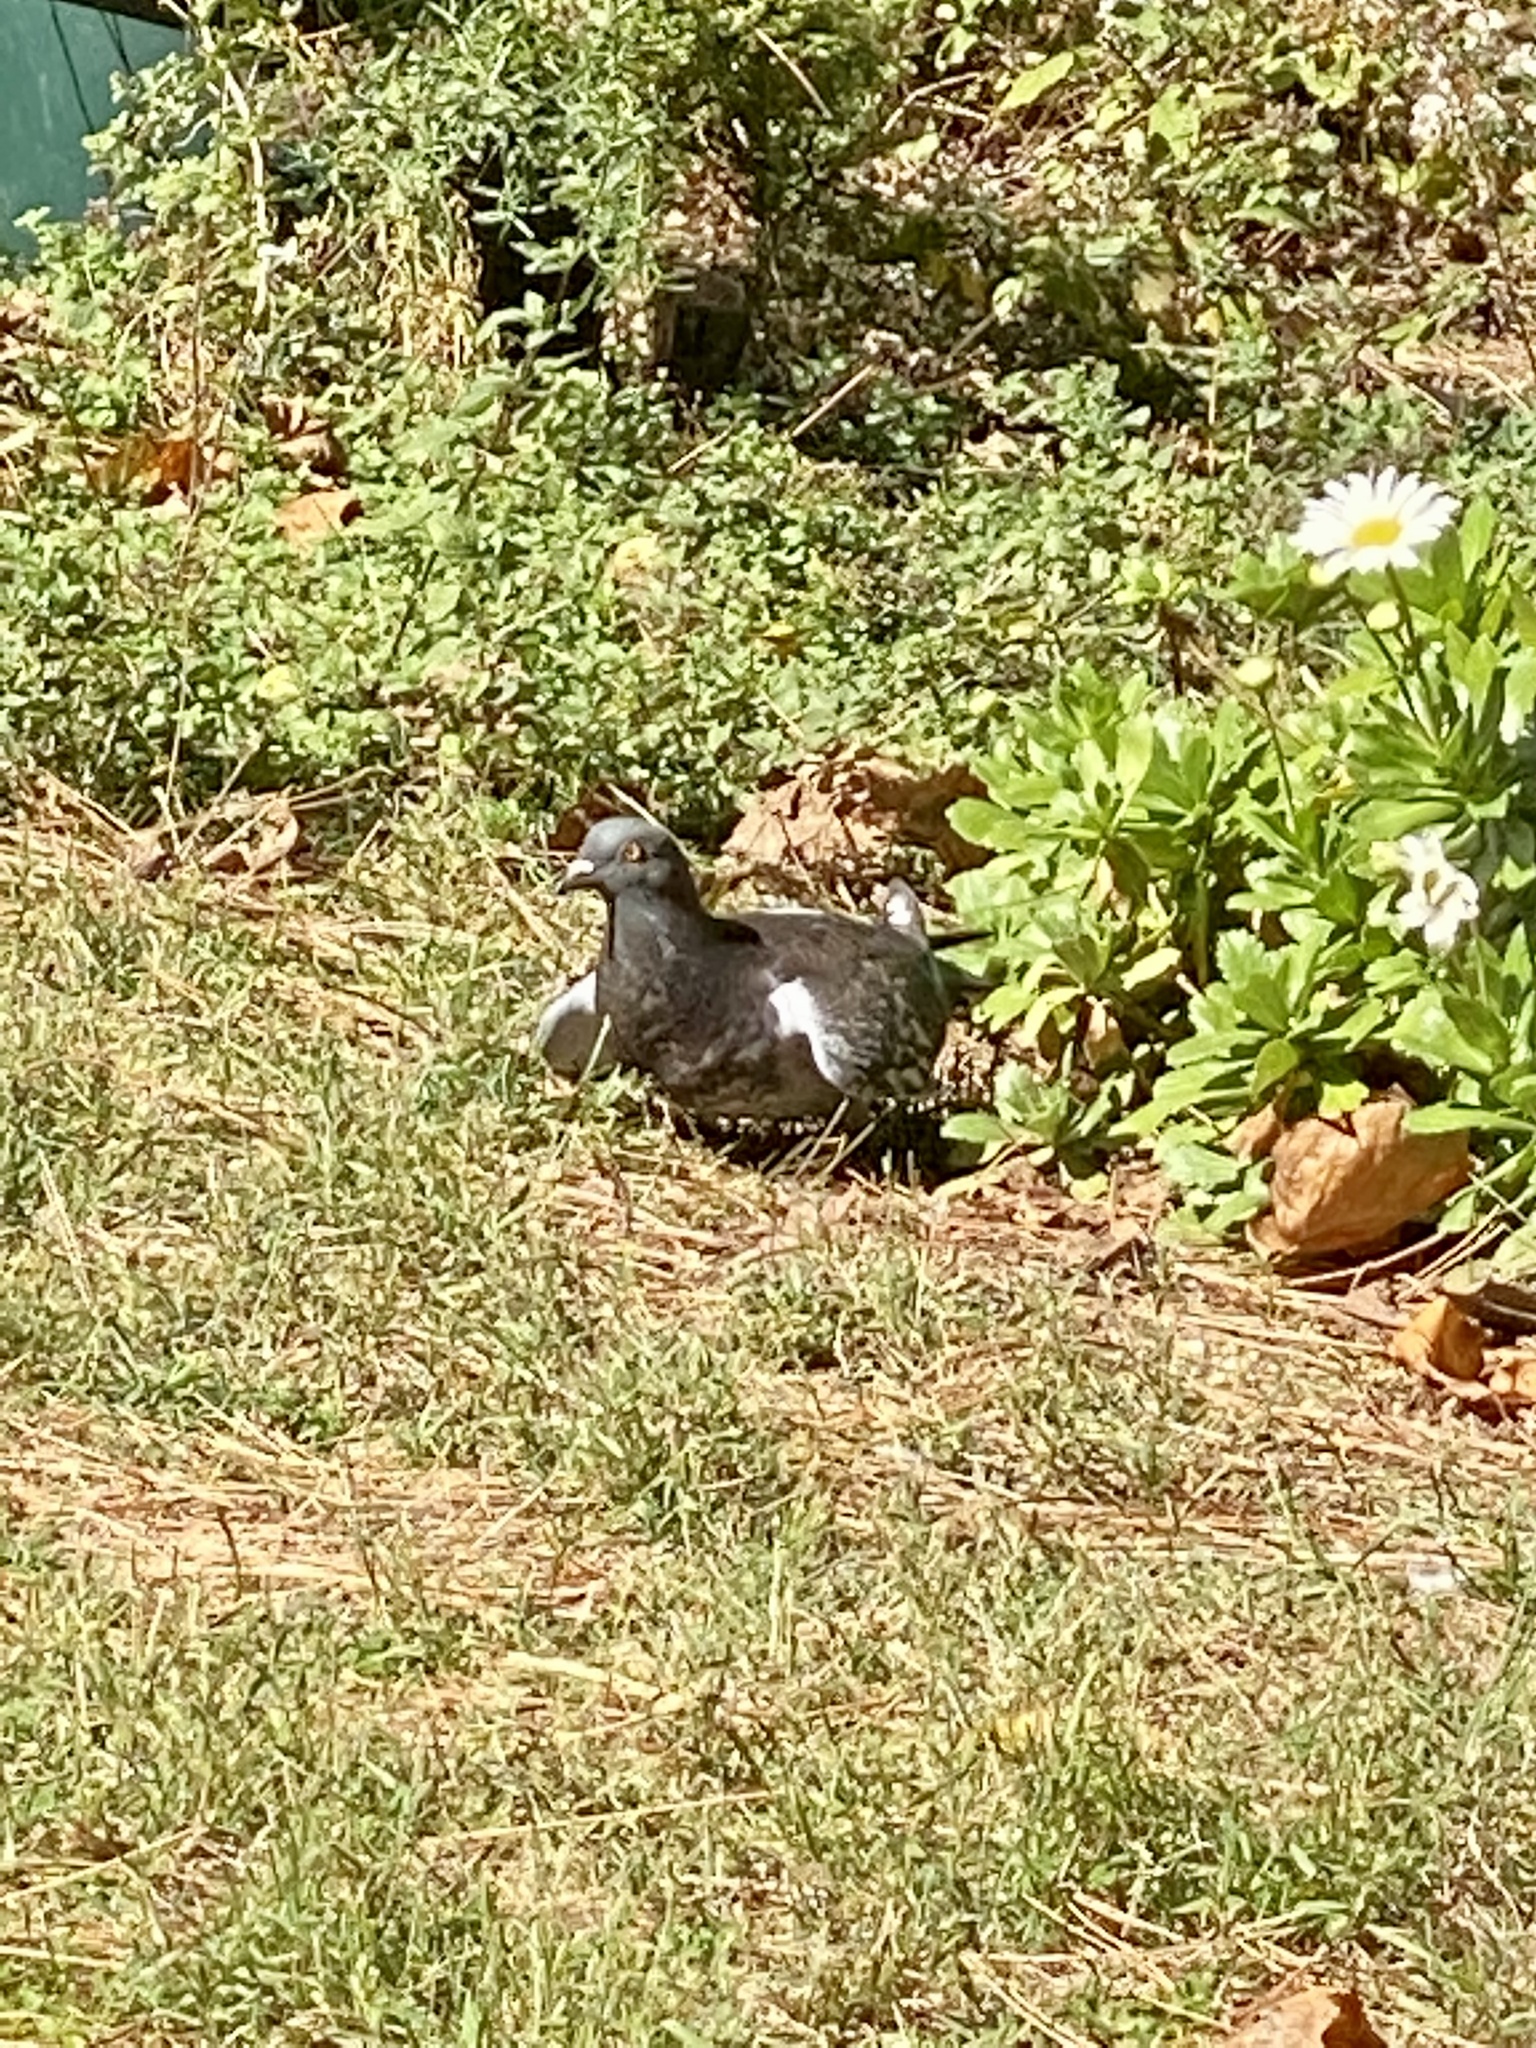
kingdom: Animalia
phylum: Chordata
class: Aves
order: Columbiformes
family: Columbidae
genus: Columba
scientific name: Columba livia
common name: Rock pigeon
